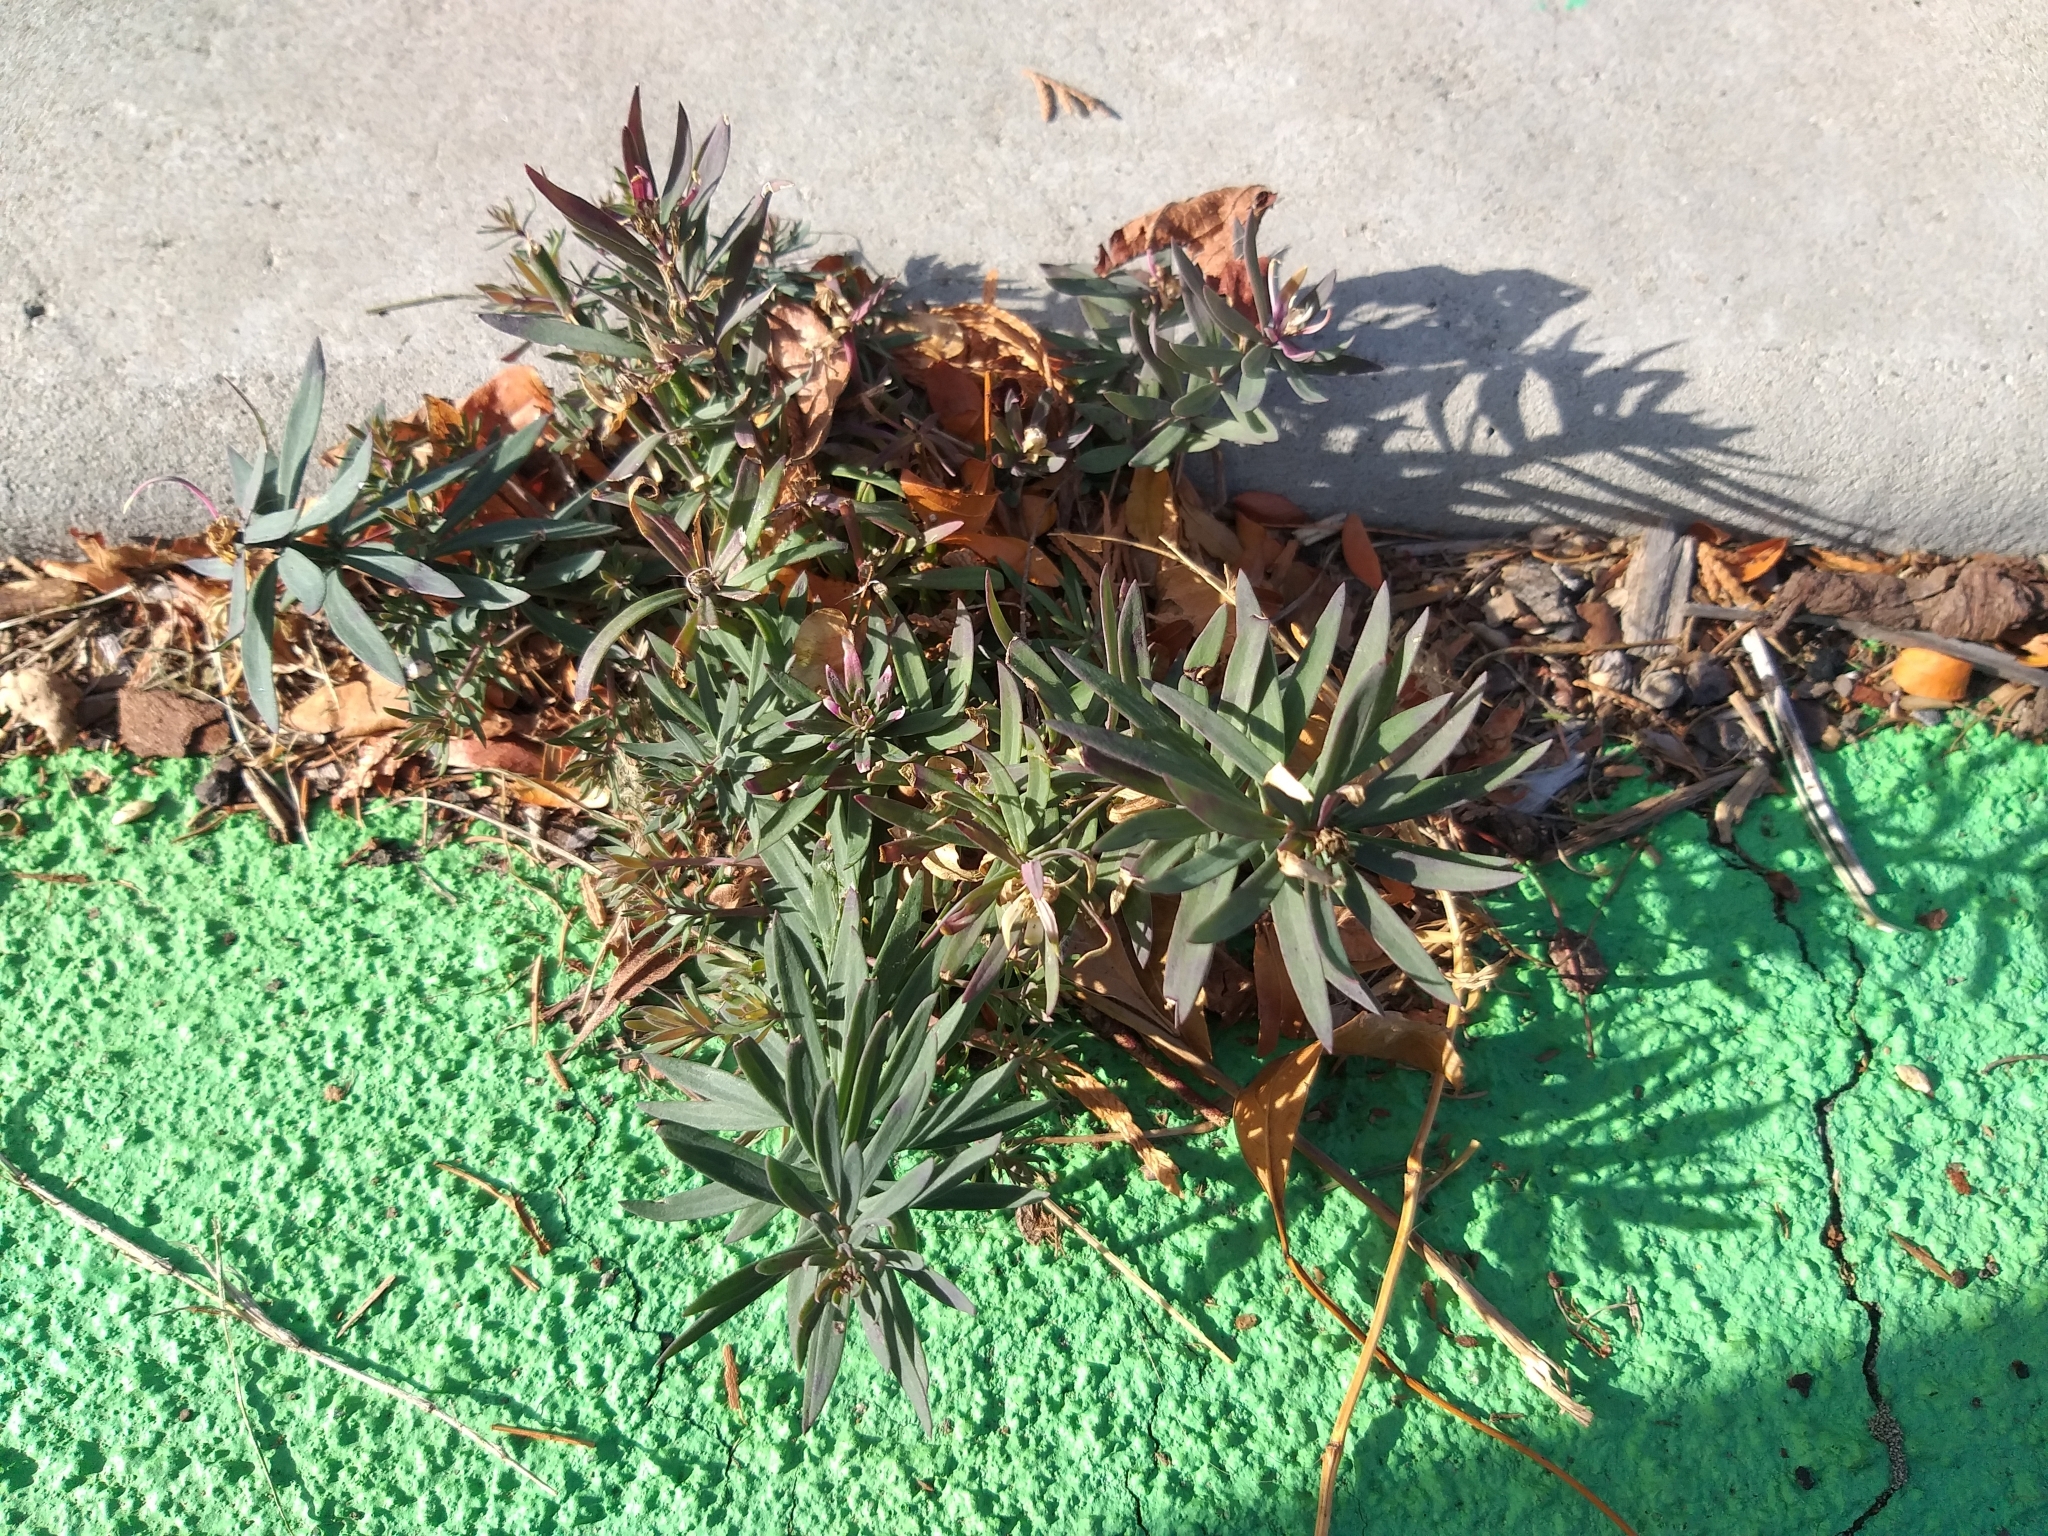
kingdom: Plantae
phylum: Tracheophyta
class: Magnoliopsida
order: Lamiales
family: Plantaginaceae
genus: Linaria
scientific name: Linaria purpurea
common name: Purple toadflax
